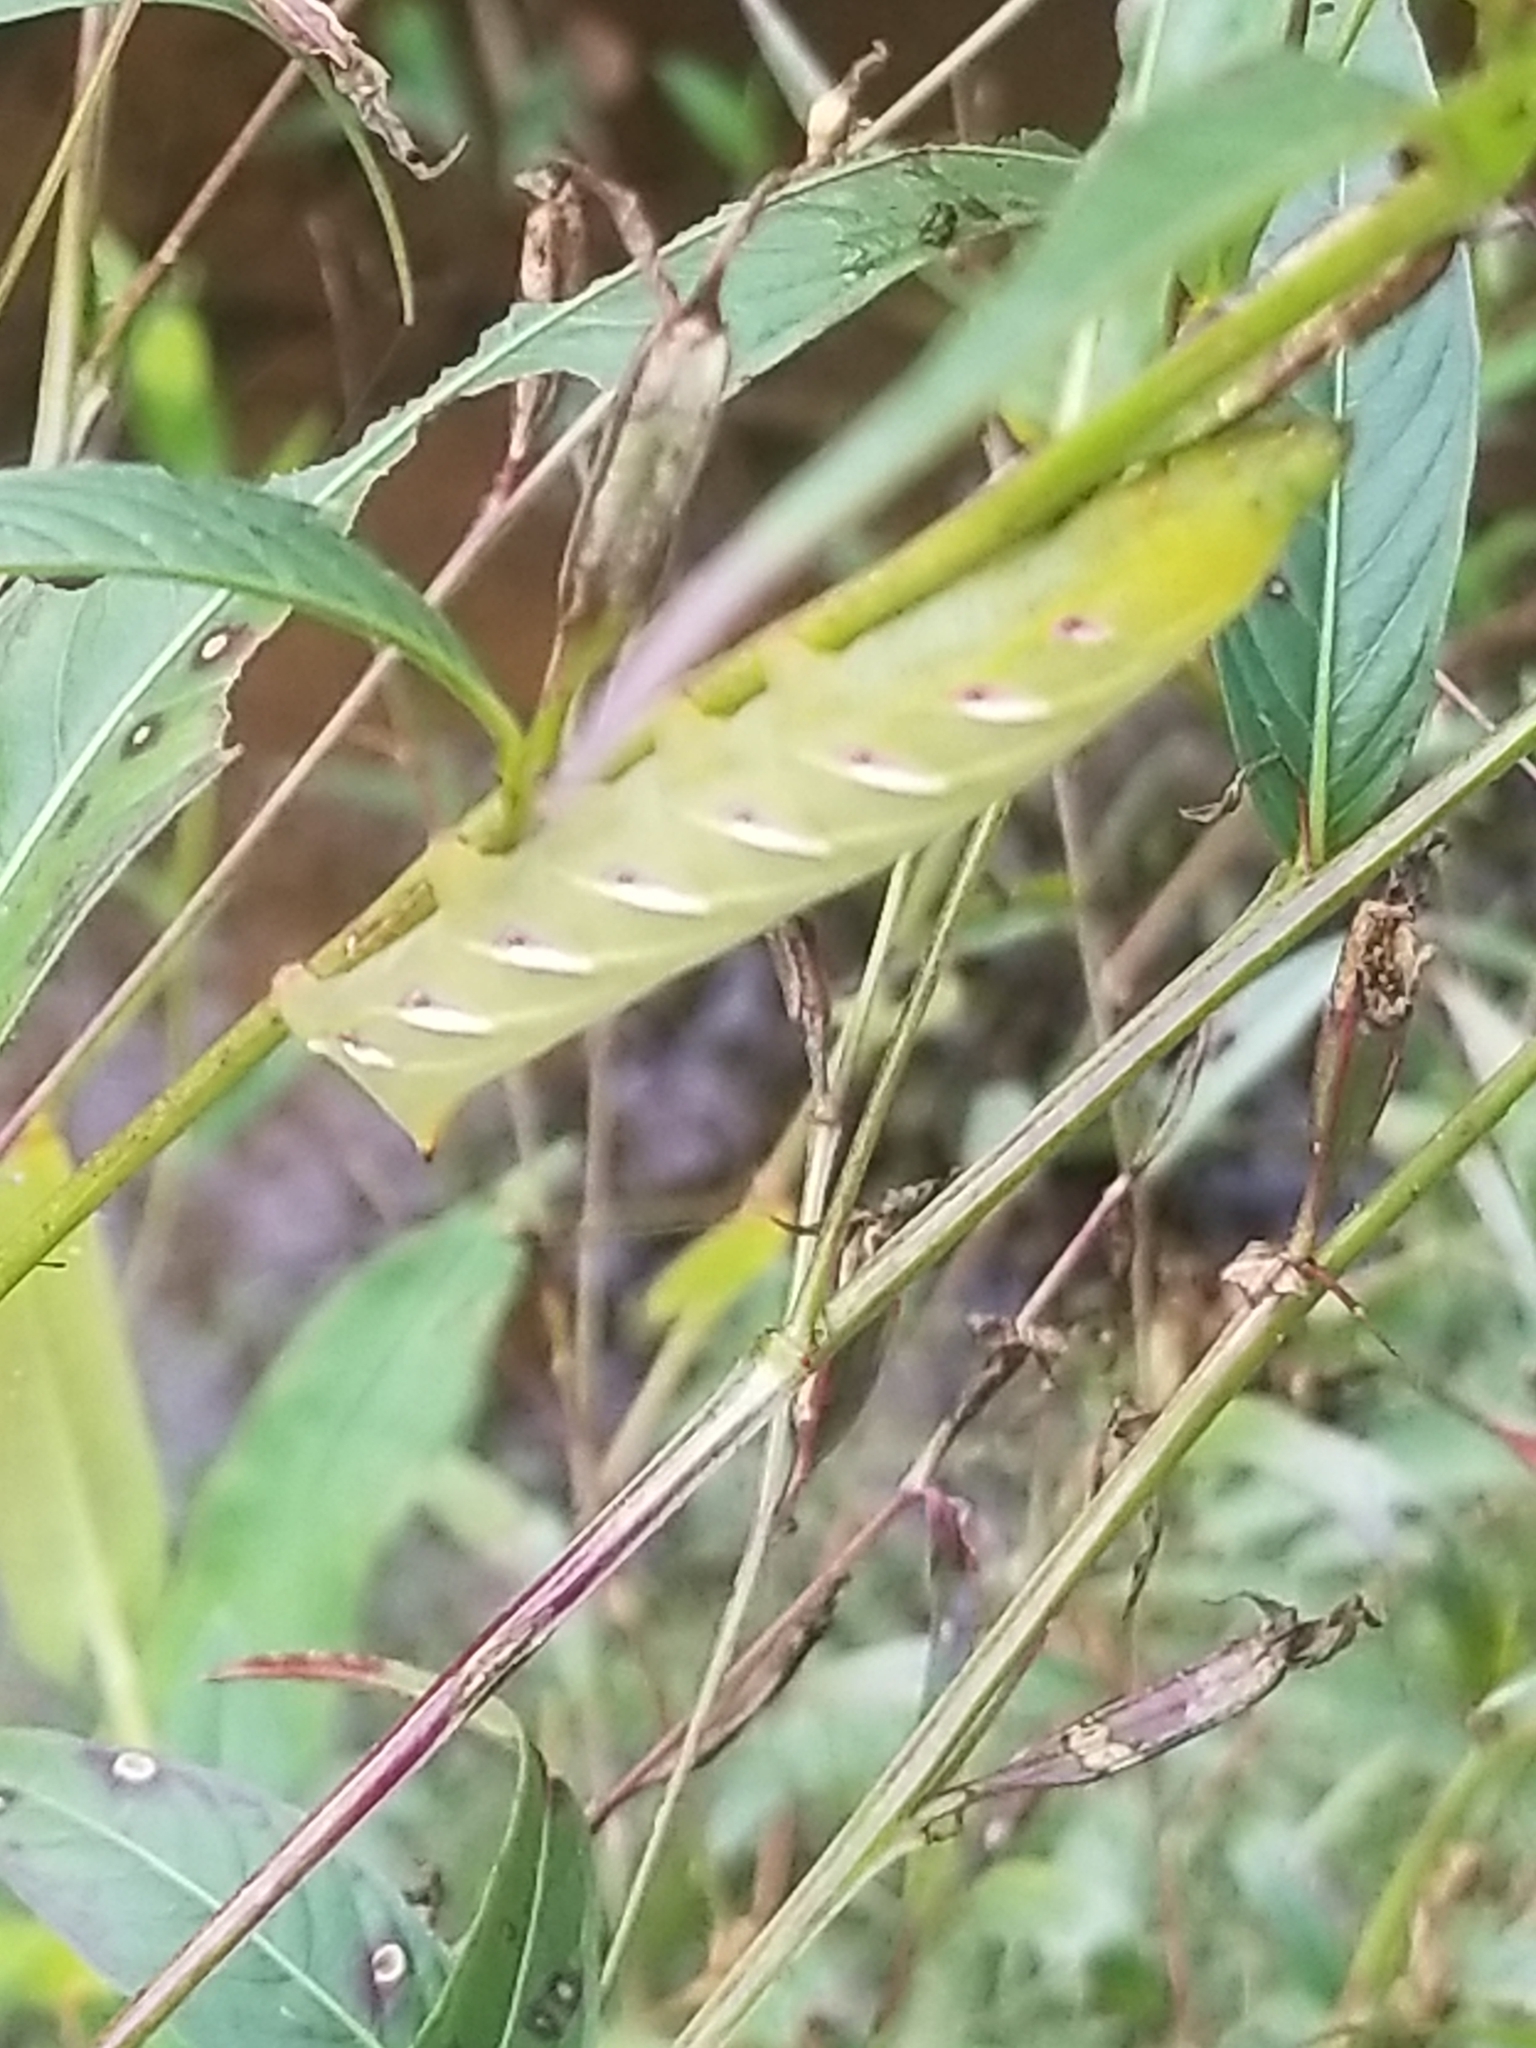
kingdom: Animalia
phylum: Arthropoda
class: Insecta
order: Lepidoptera
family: Sphingidae
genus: Eumorpha
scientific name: Eumorpha fasciatus
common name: Banded sphinx
